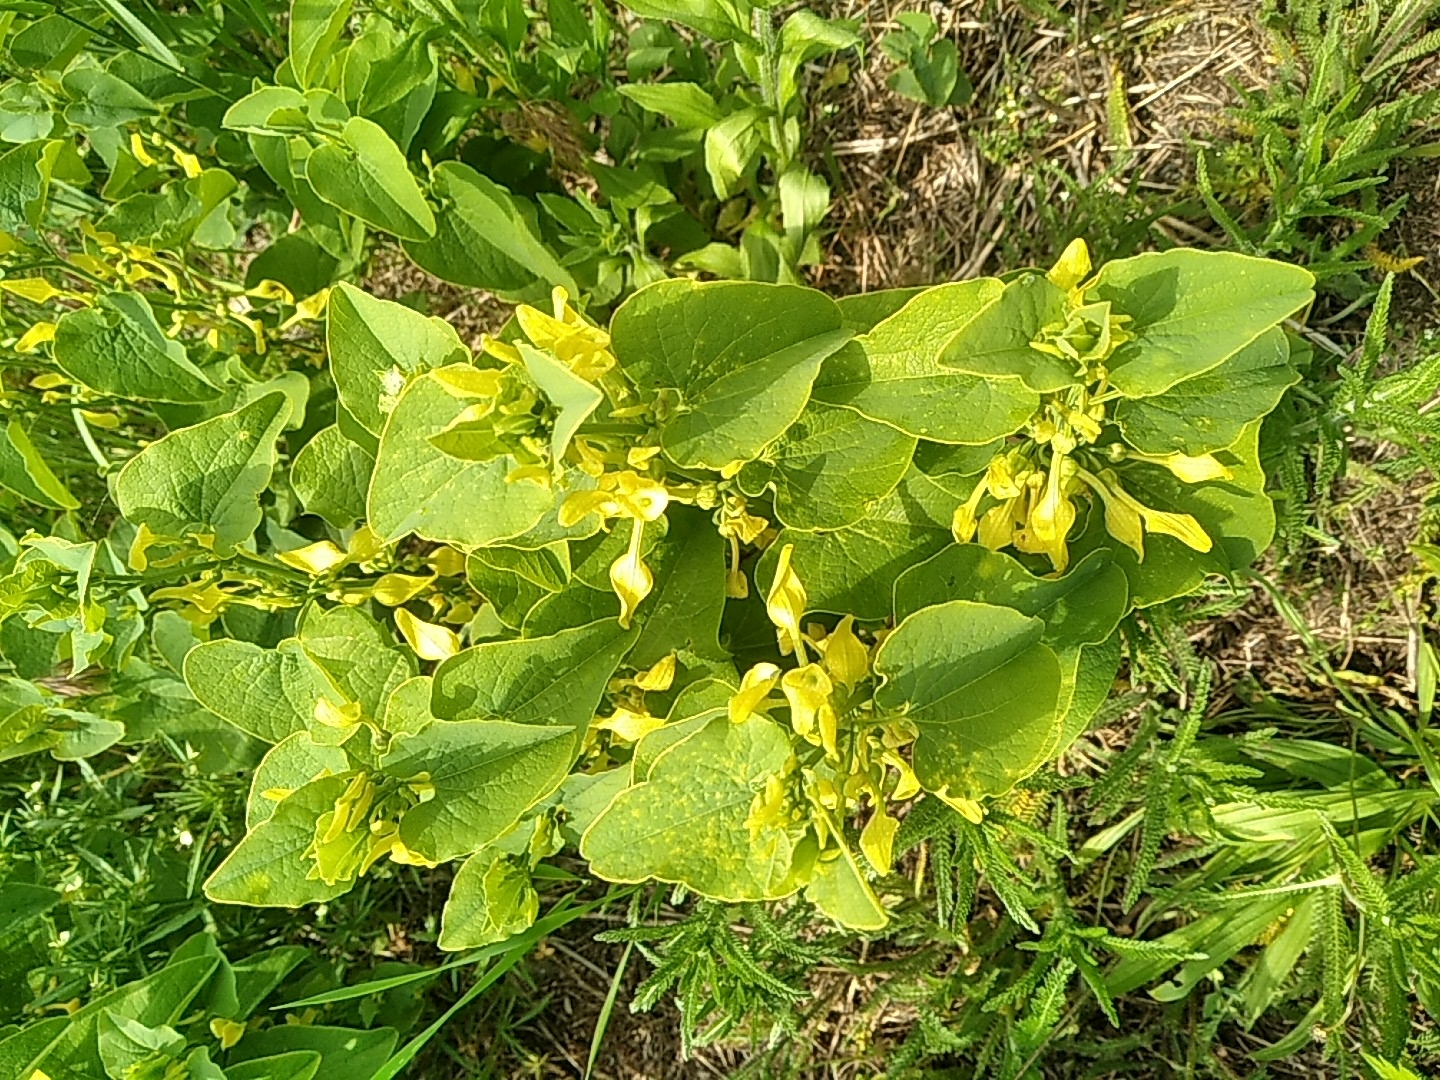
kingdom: Plantae
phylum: Tracheophyta
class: Magnoliopsida
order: Piperales
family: Aristolochiaceae
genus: Aristolochia
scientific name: Aristolochia clematitis
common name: Birthwort
